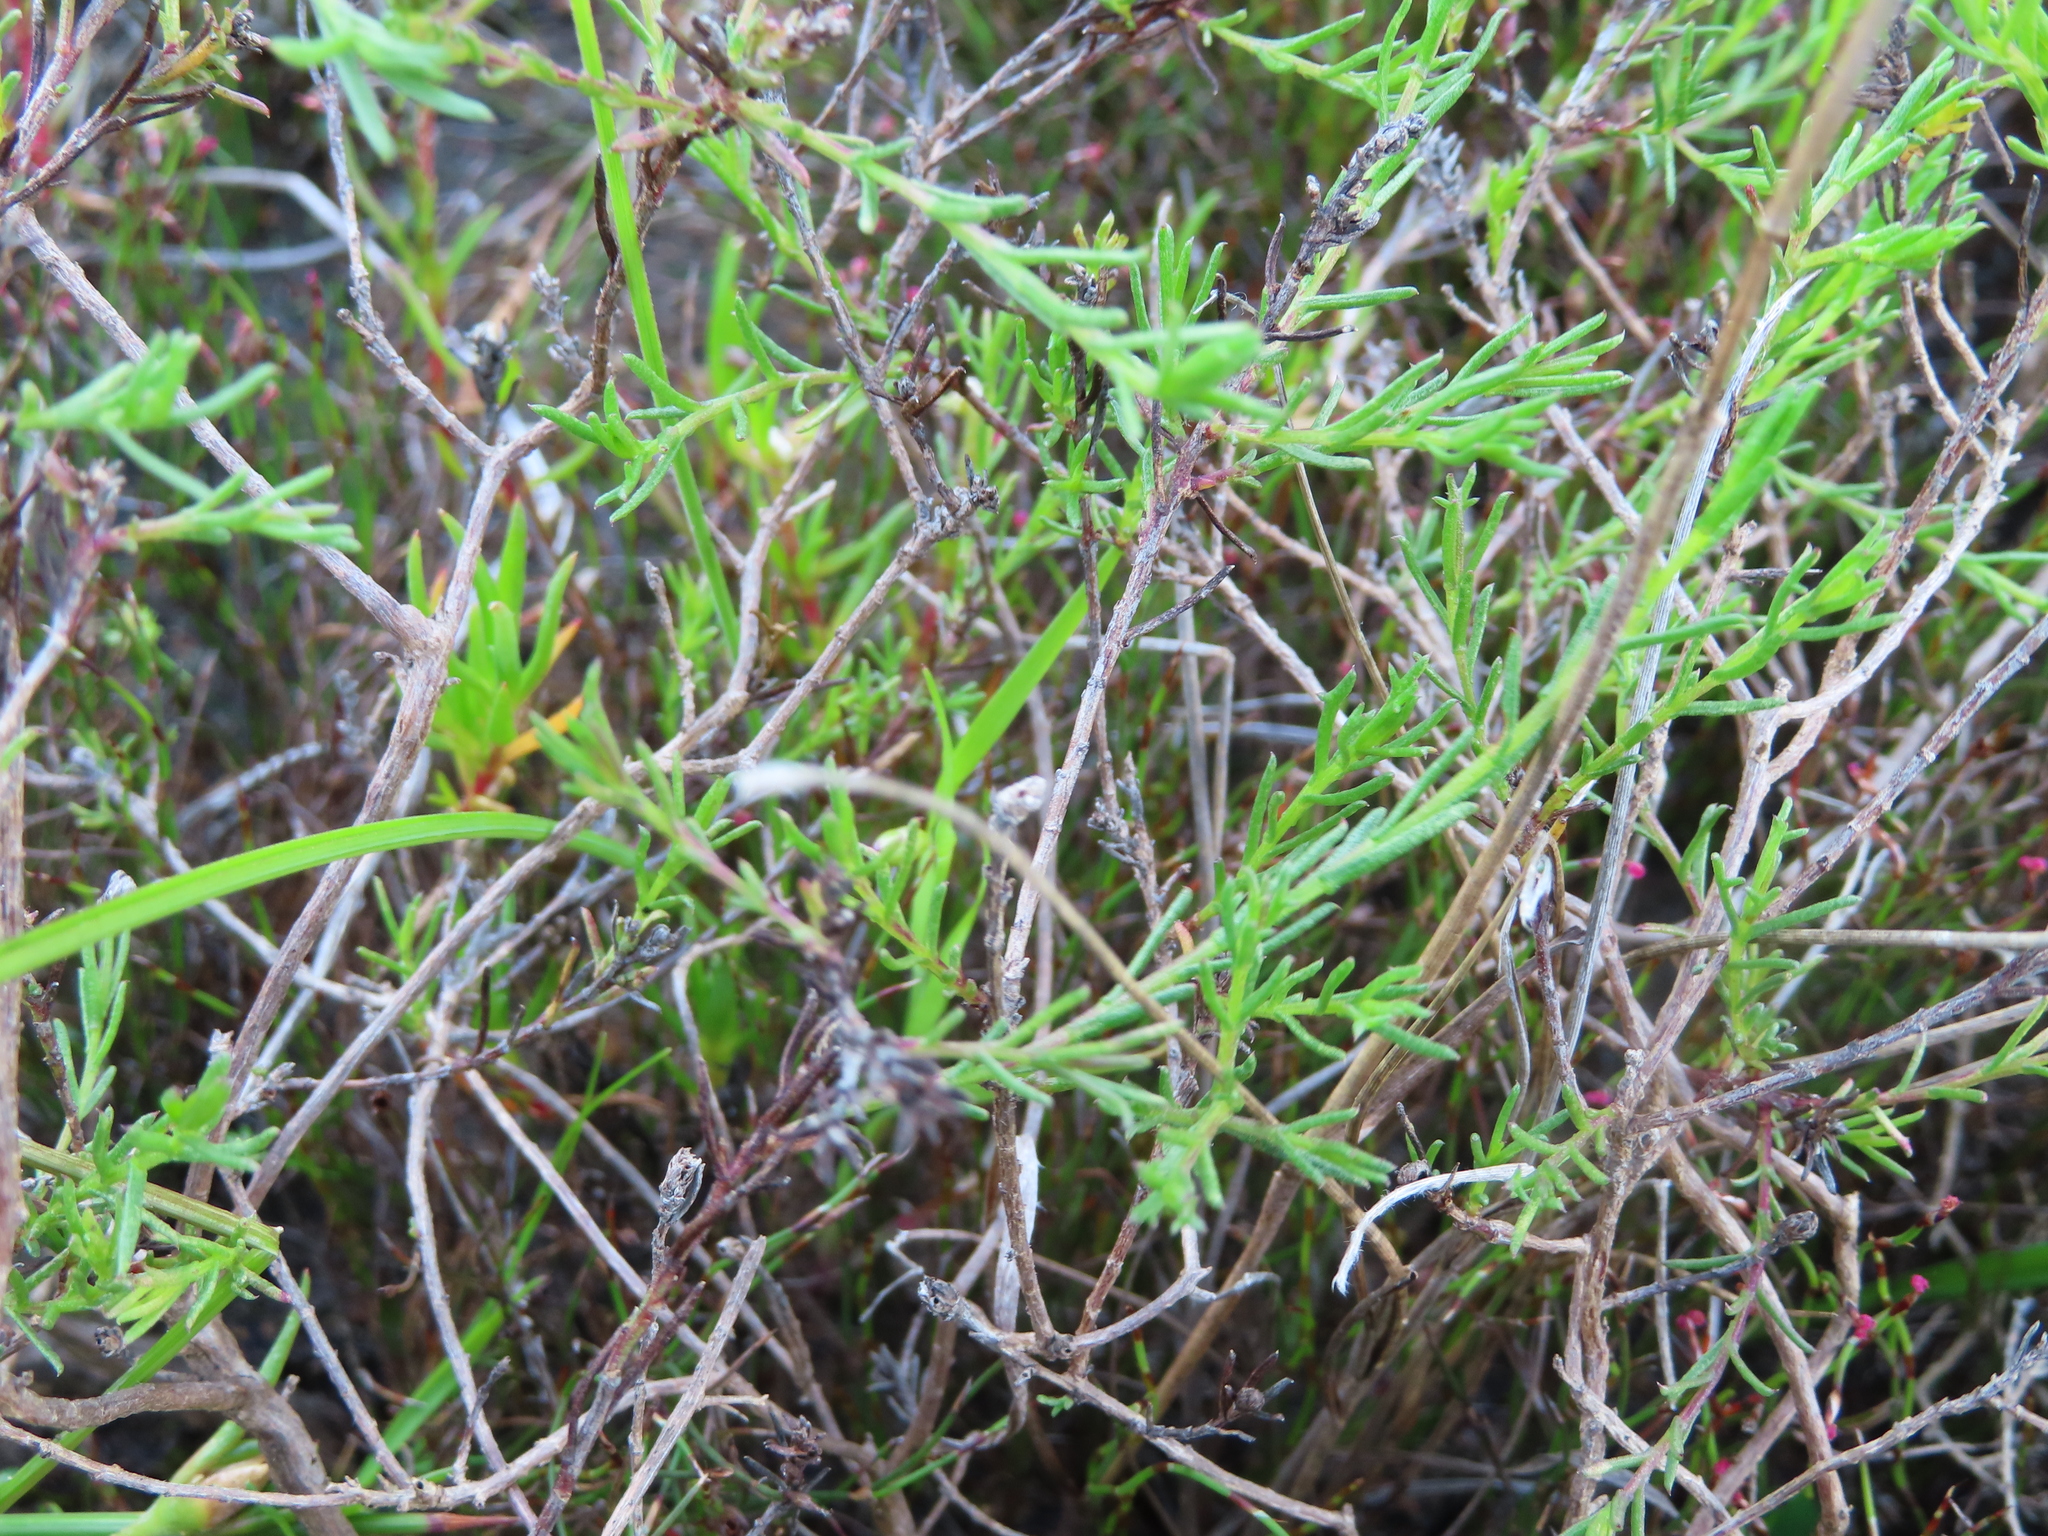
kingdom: Plantae
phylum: Tracheophyta
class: Magnoliopsida
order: Asterales
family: Asteraceae
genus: Marasmodes
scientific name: Marasmodes polycephalus
